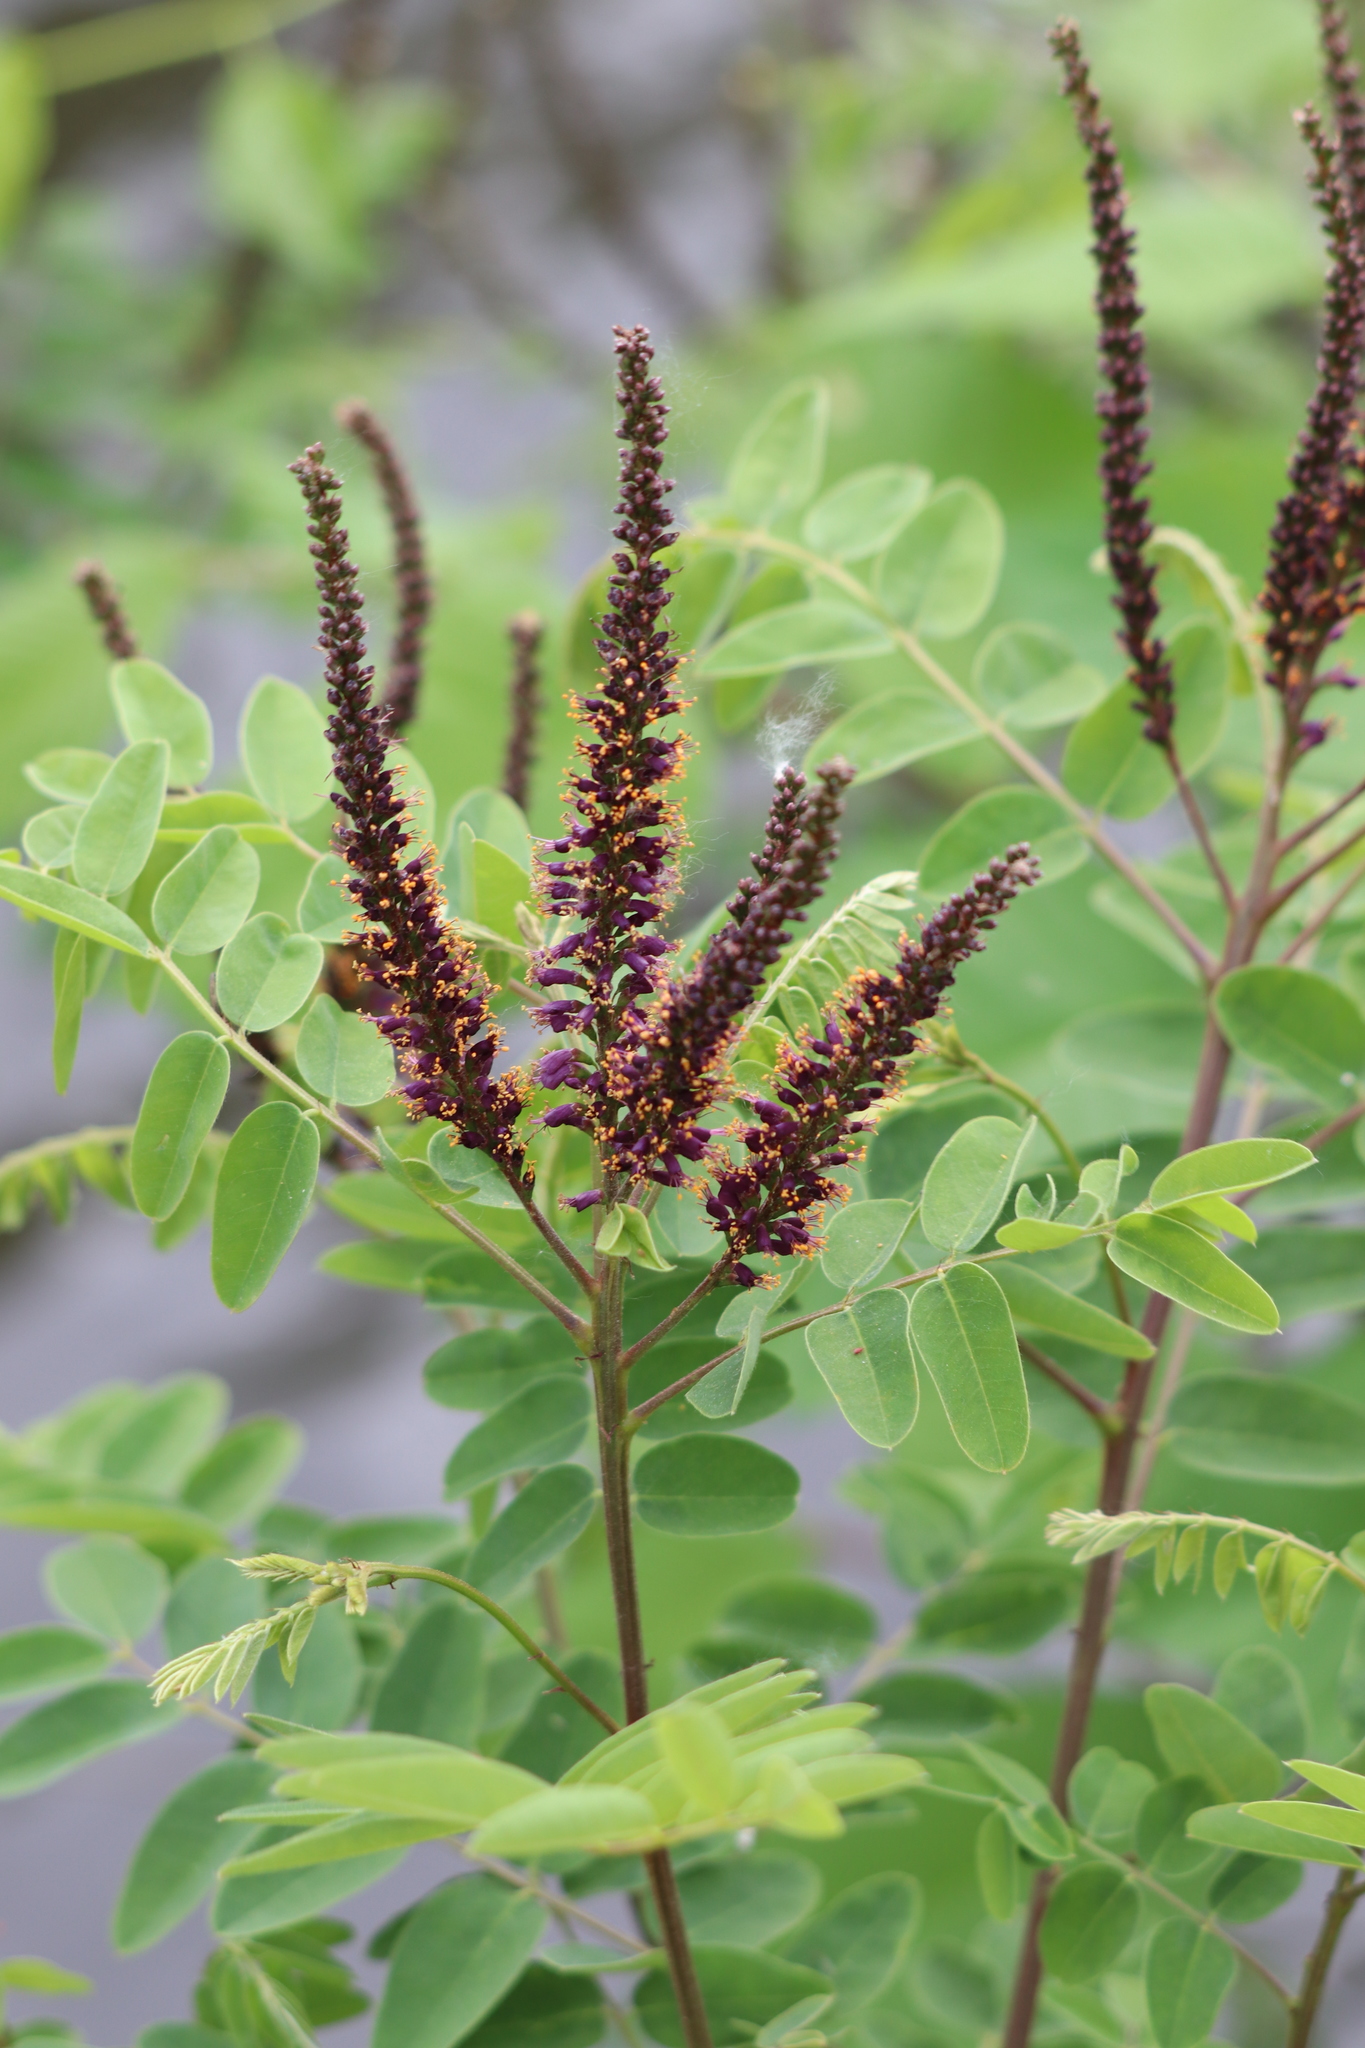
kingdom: Plantae
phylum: Tracheophyta
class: Magnoliopsida
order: Fabales
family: Fabaceae
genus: Amorpha
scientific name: Amorpha fruticosa
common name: False indigo
